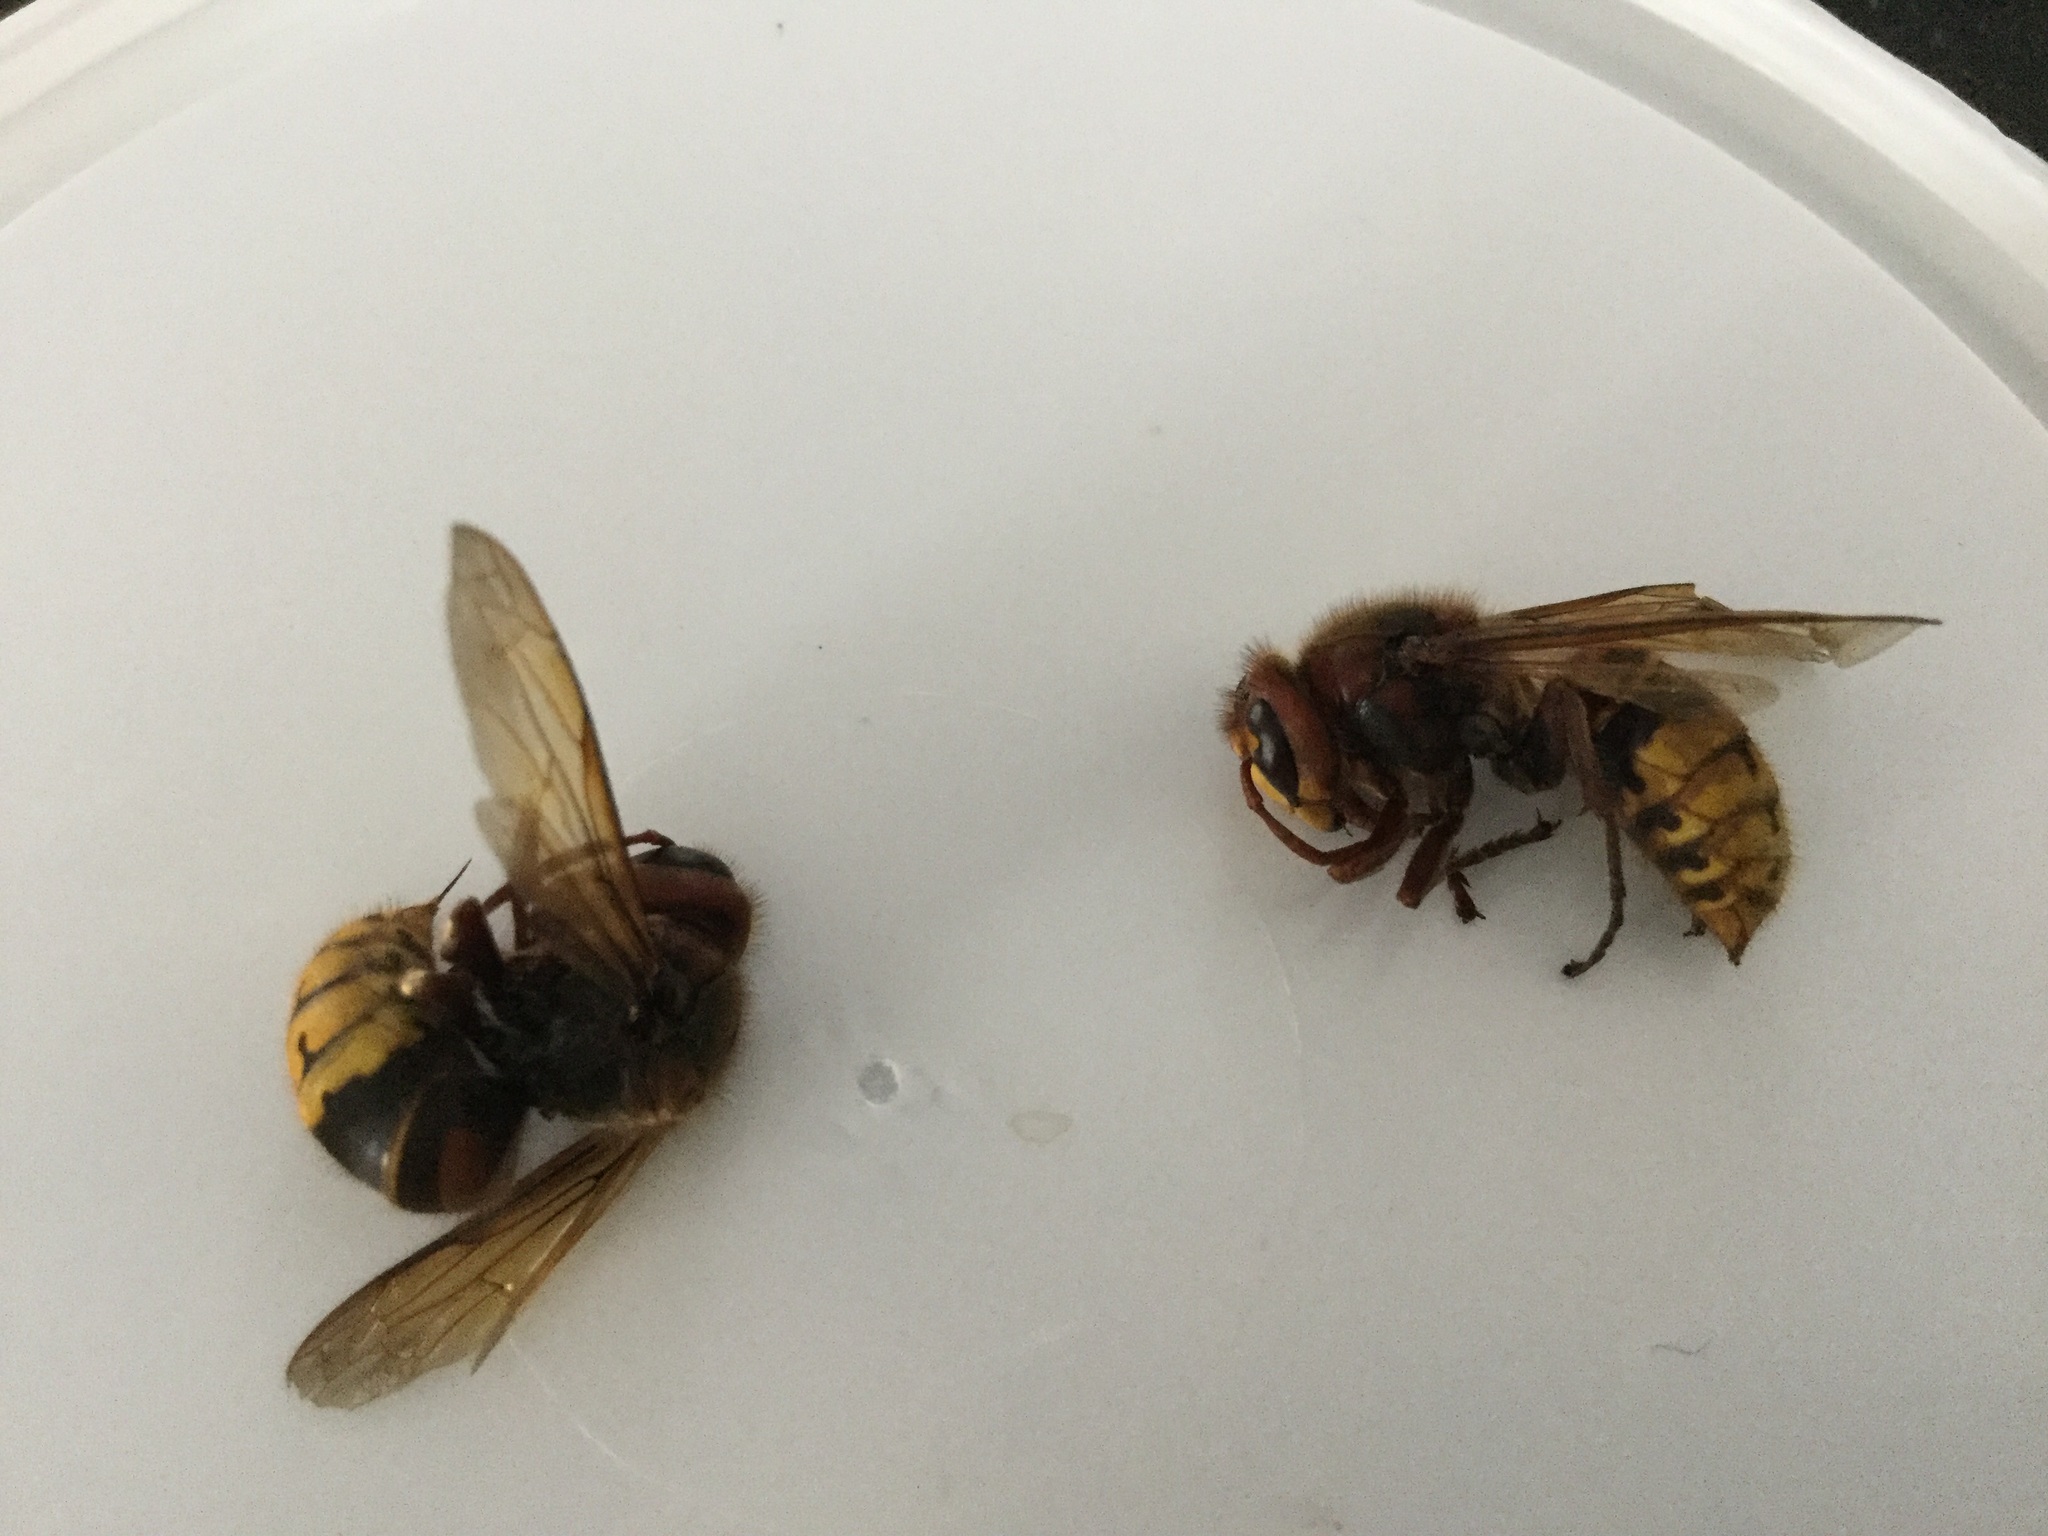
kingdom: Animalia
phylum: Arthropoda
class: Insecta
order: Hymenoptera
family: Vespidae
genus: Vespa
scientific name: Vespa crabro
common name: Hornet
